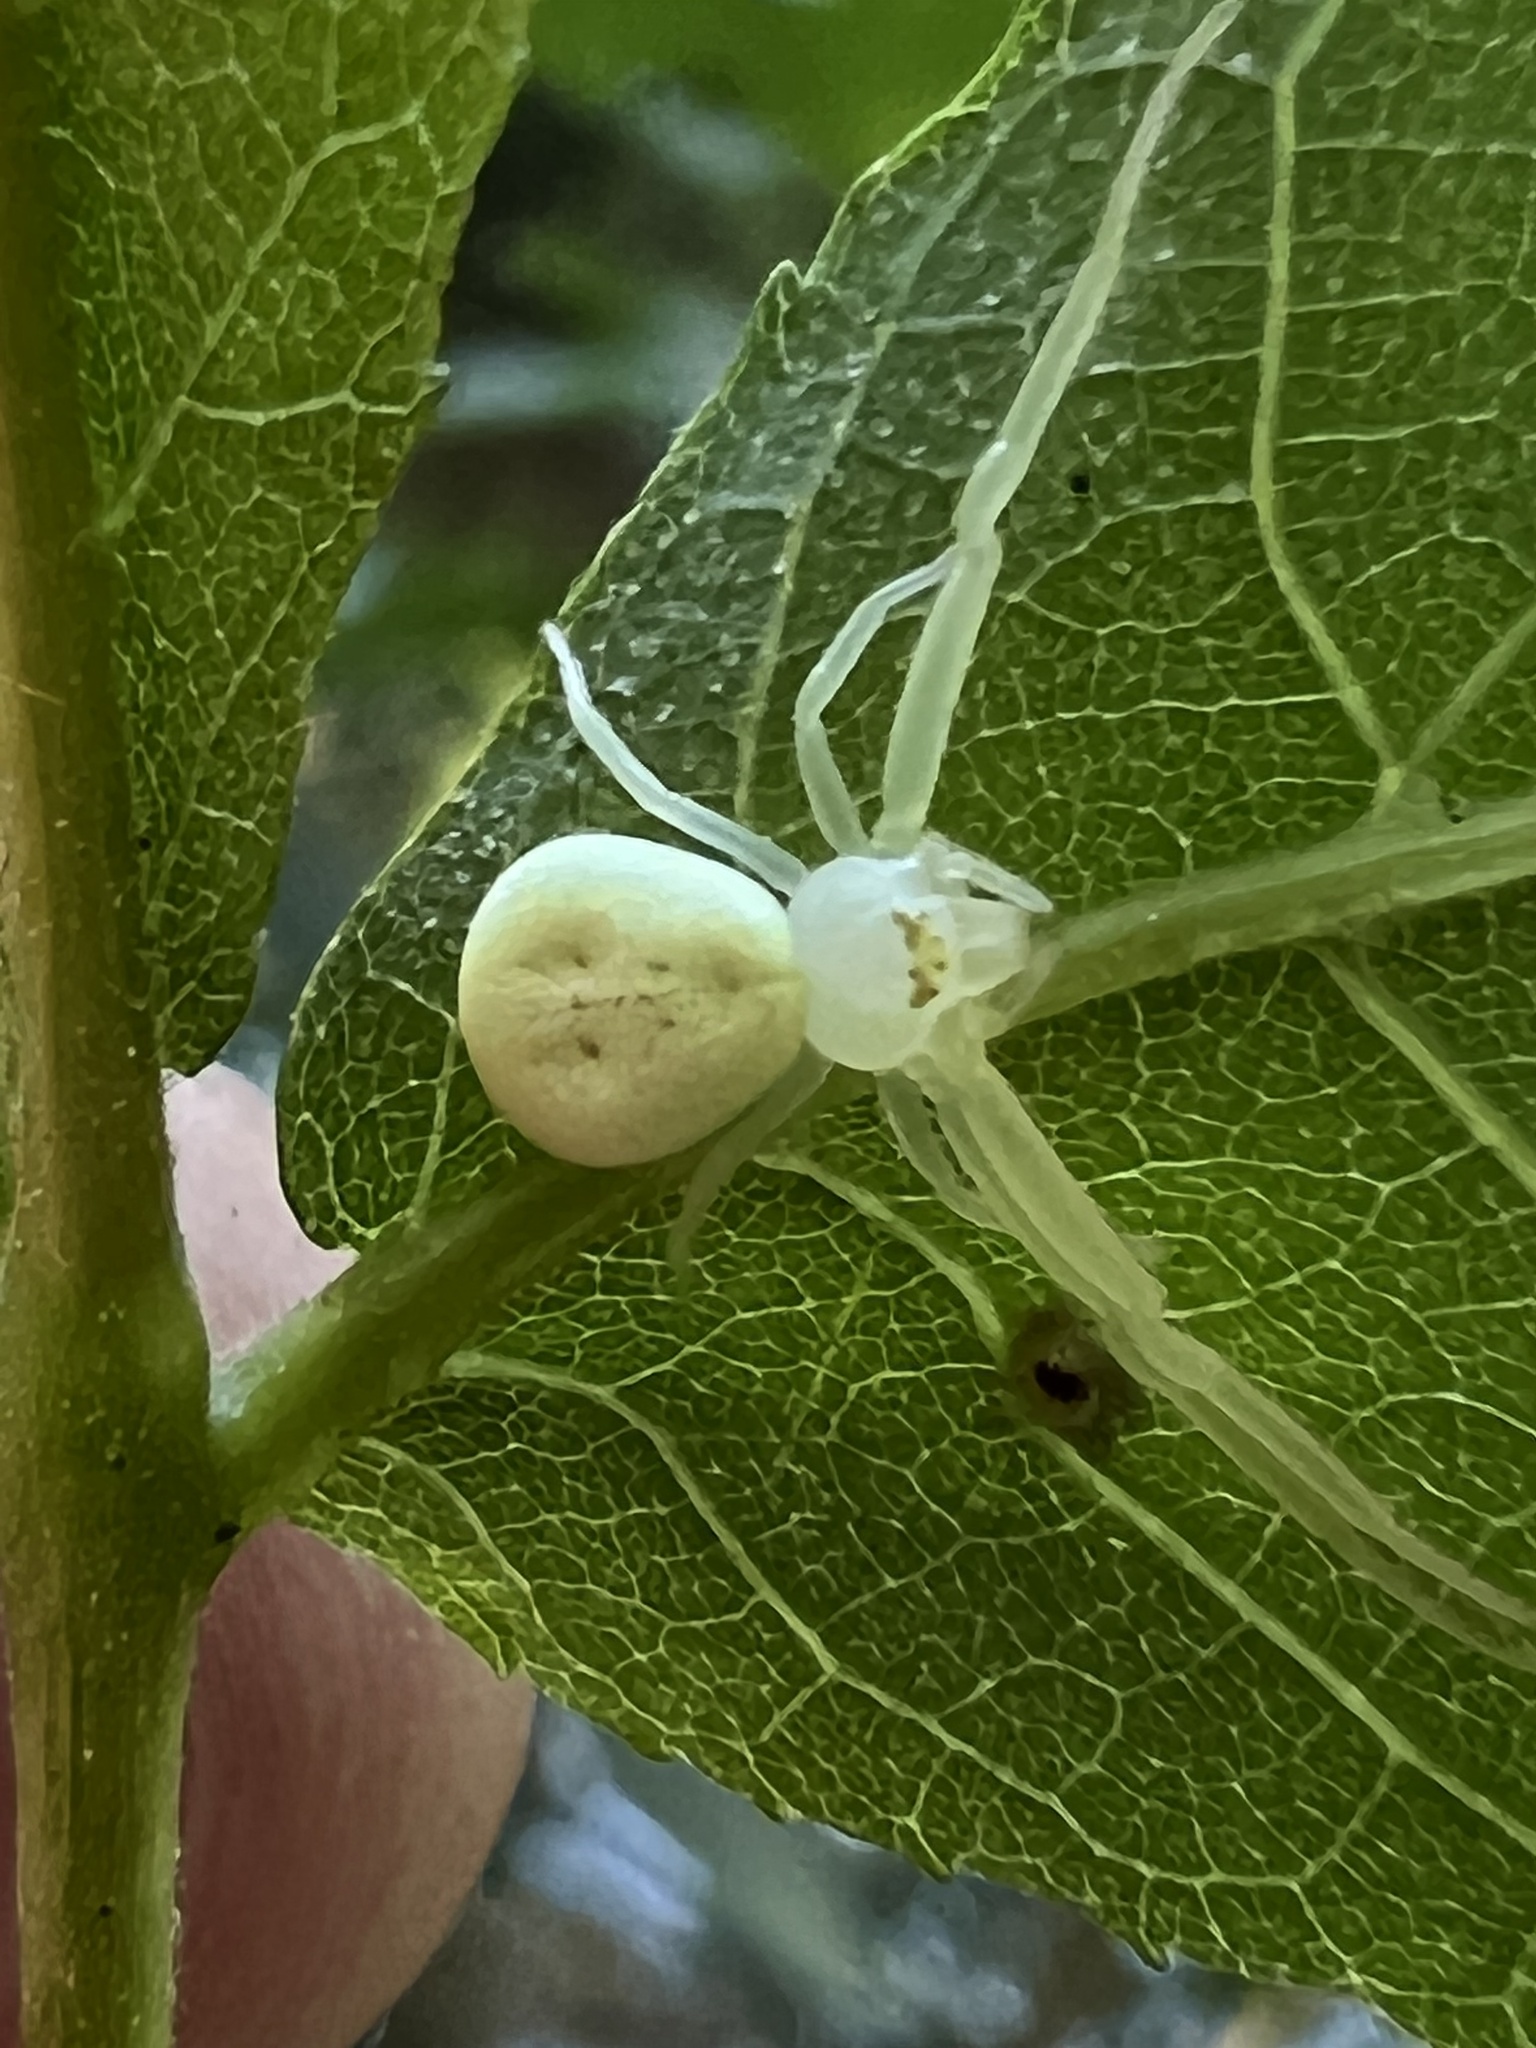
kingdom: Animalia
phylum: Arthropoda
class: Arachnida
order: Araneae
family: Thomisidae
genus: Misumessus
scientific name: Misumessus oblongus
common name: American green crab spider
